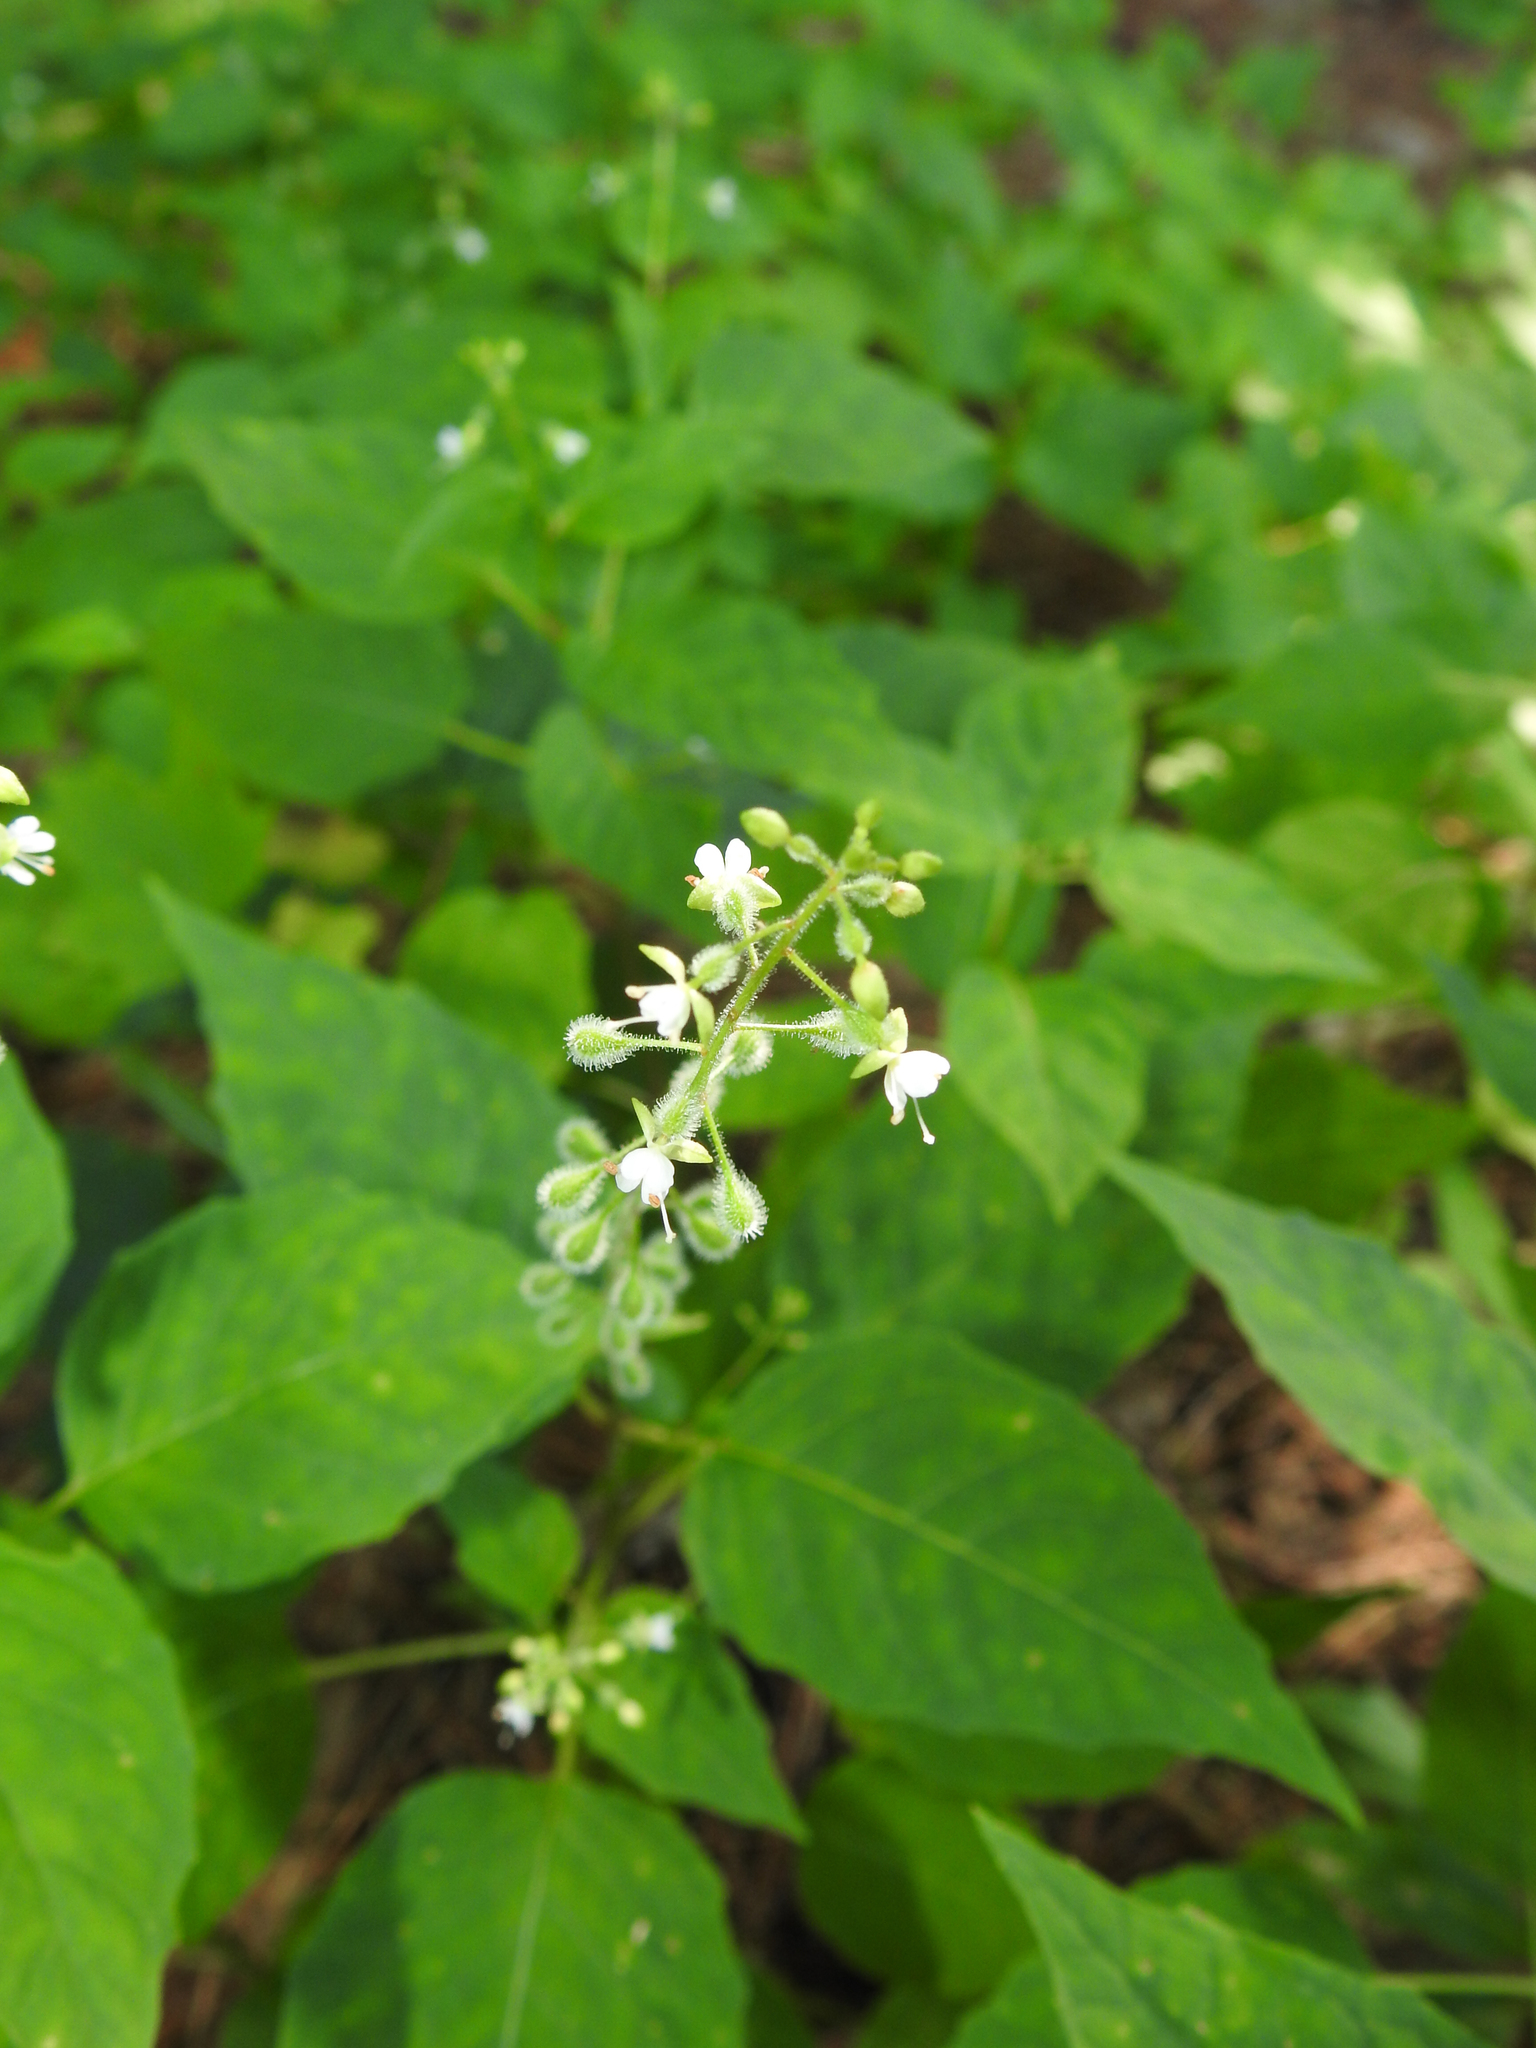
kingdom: Plantae
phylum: Tracheophyta
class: Magnoliopsida
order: Myrtales
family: Onagraceae
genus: Circaea
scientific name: Circaea canadensis
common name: Broad-leaved enchanter's nightshade
